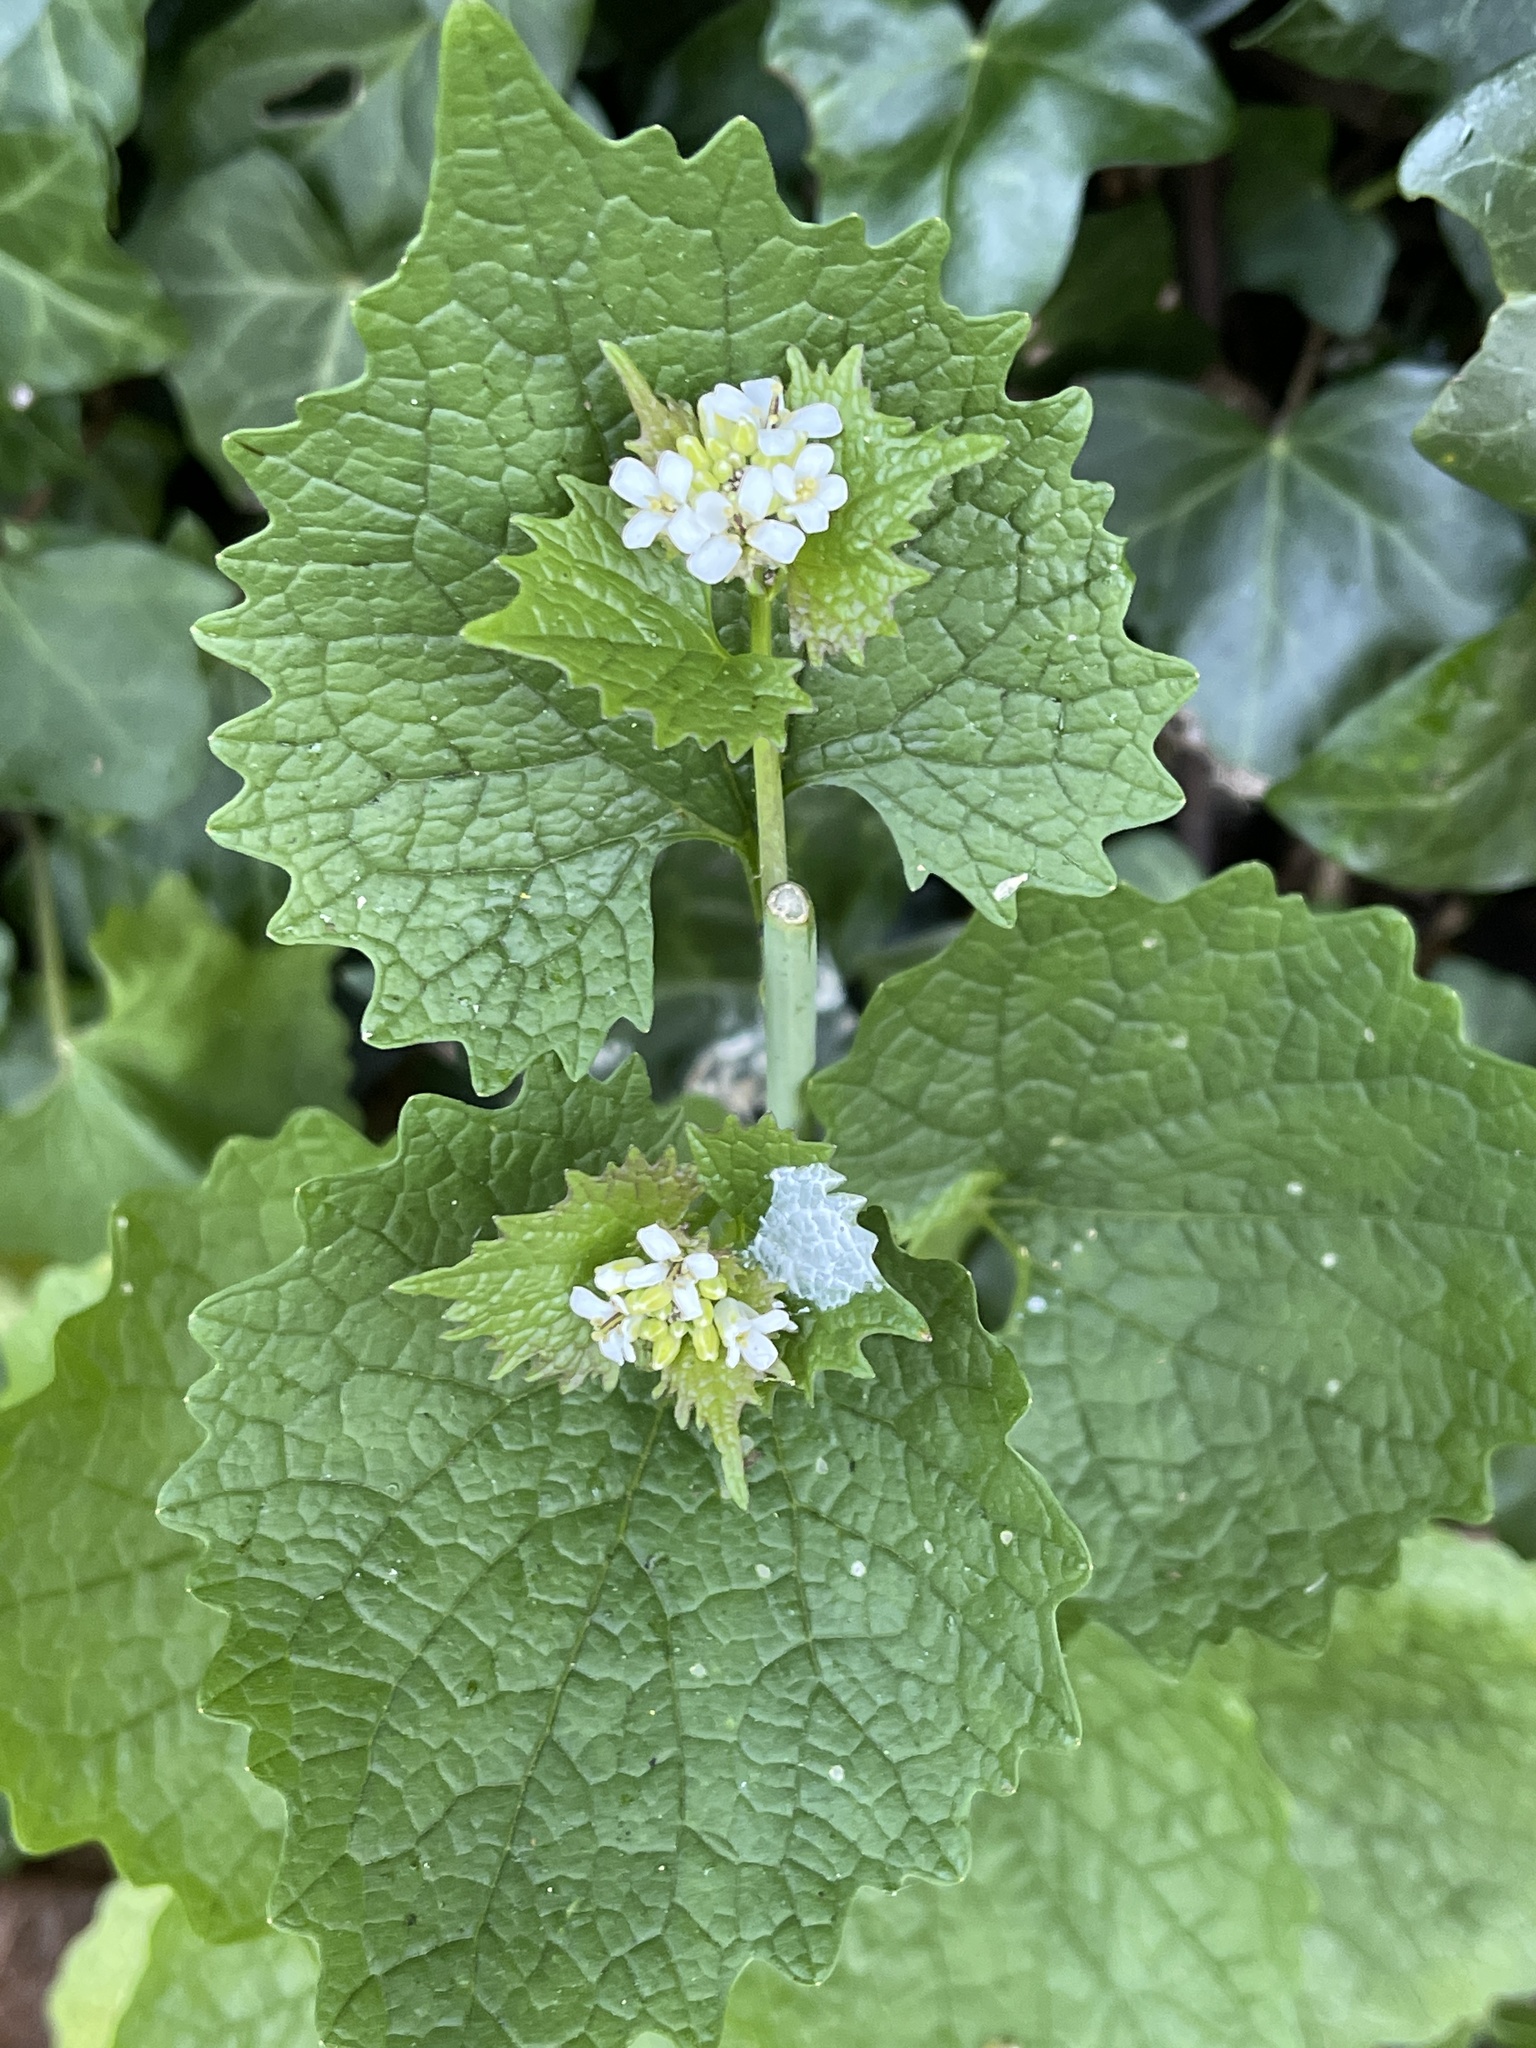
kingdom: Plantae
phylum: Tracheophyta
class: Magnoliopsida
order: Brassicales
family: Brassicaceae
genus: Alliaria
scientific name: Alliaria petiolata
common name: Garlic mustard
